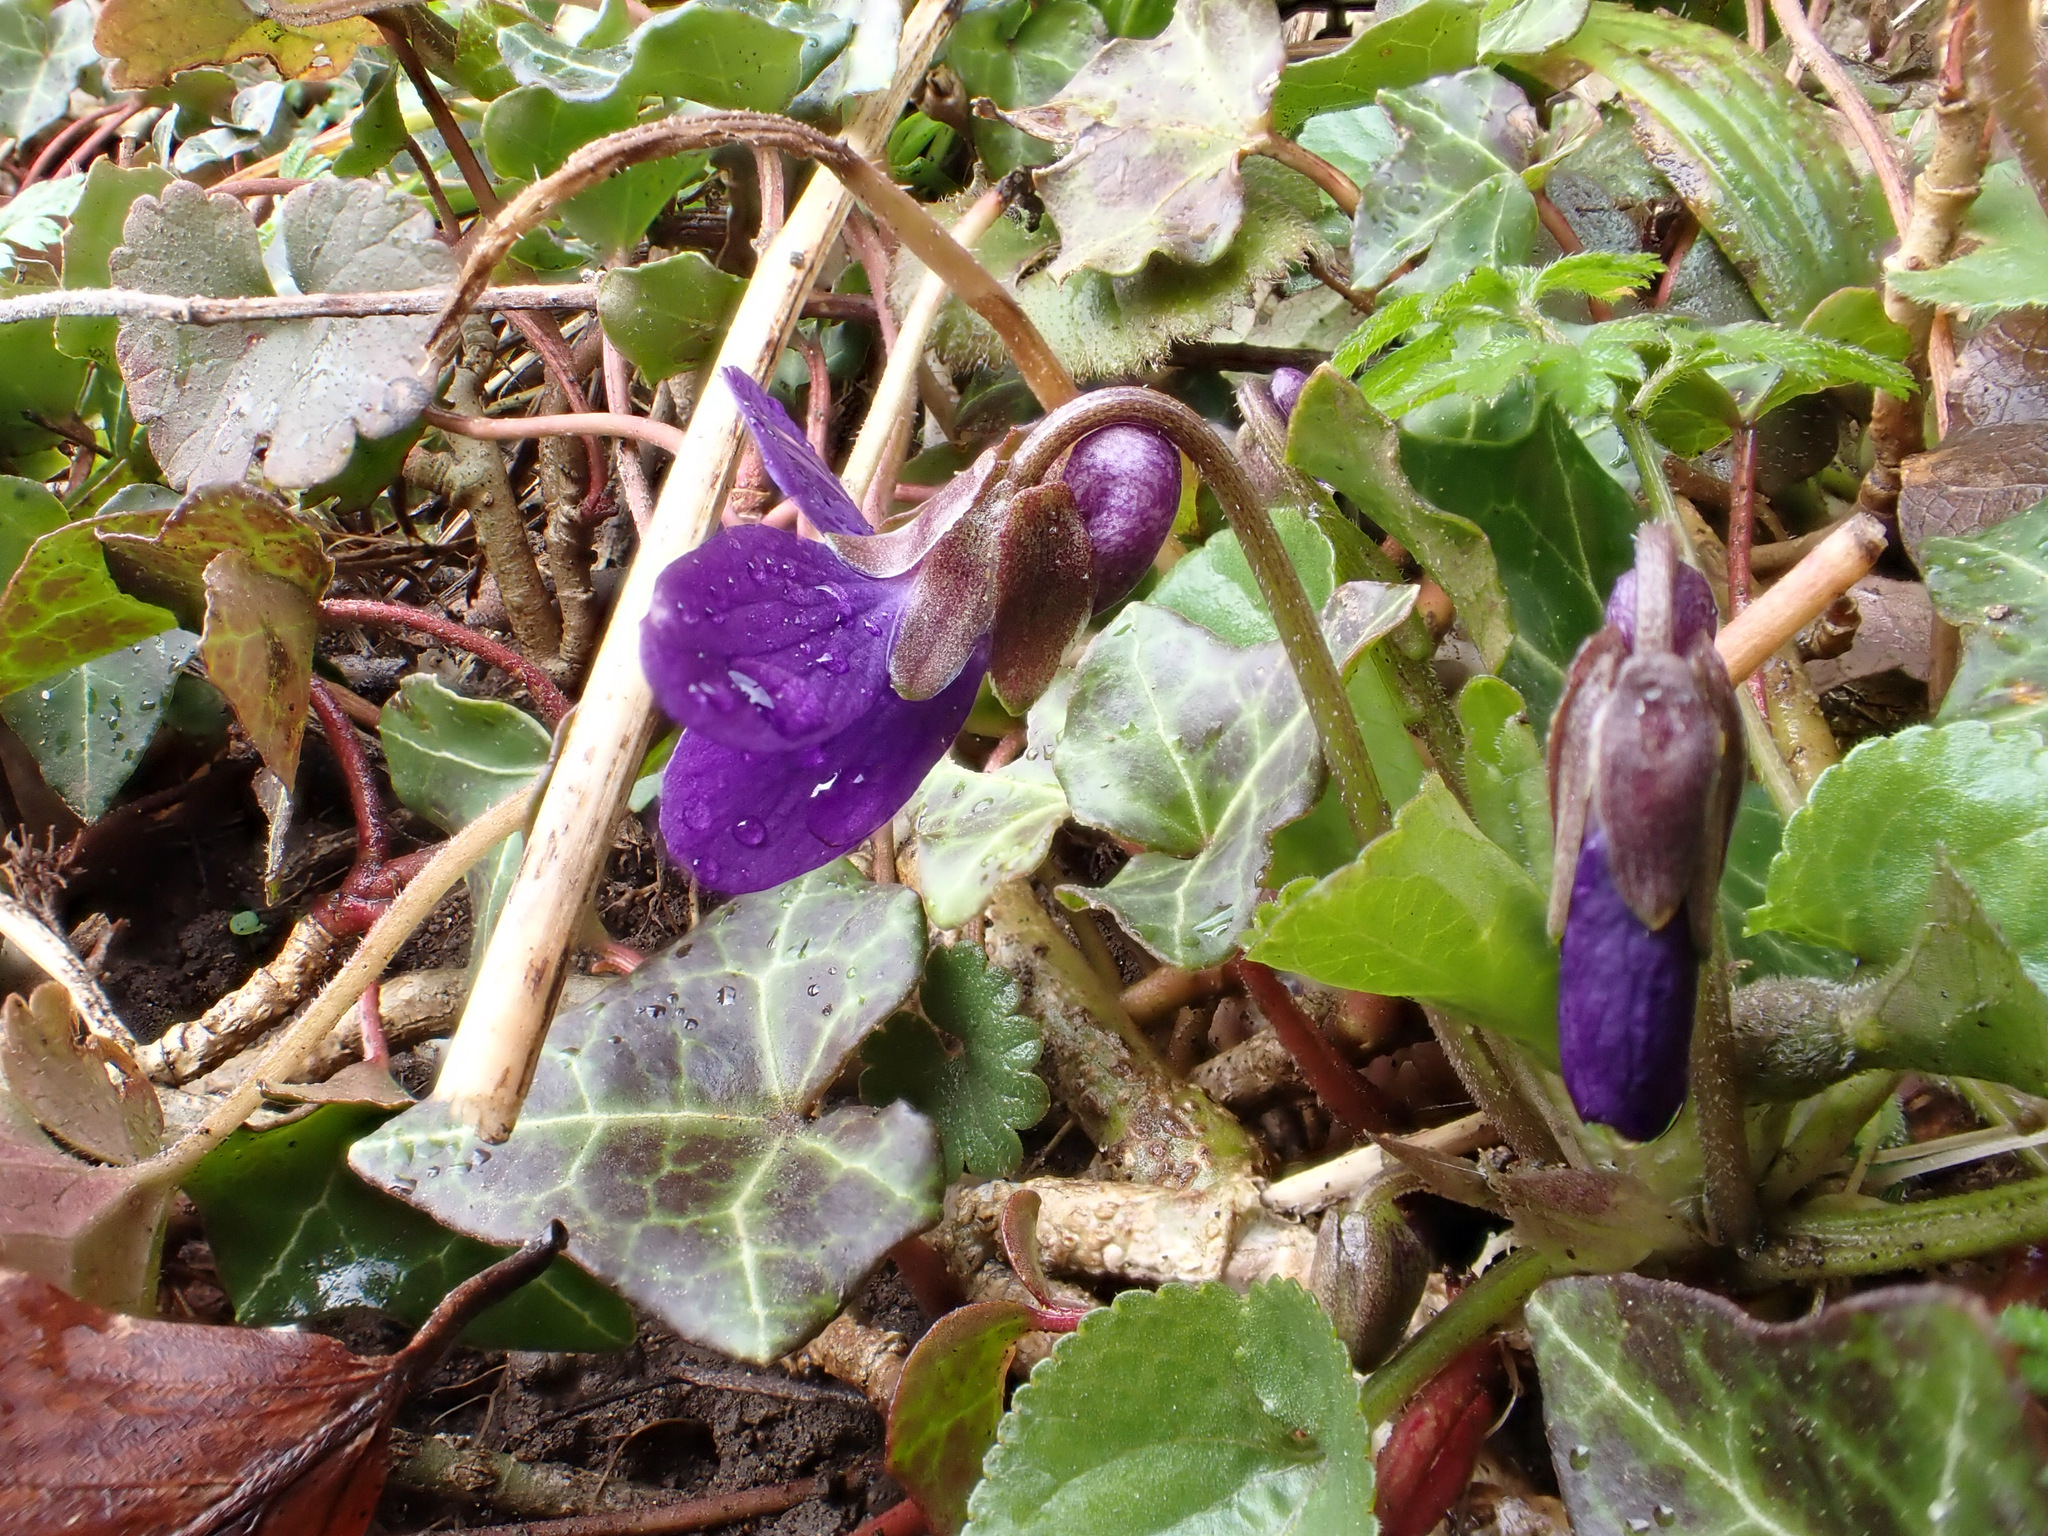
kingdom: Plantae
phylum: Tracheophyta
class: Magnoliopsida
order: Malpighiales
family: Violaceae
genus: Viola
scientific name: Viola odorata
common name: Sweet violet
